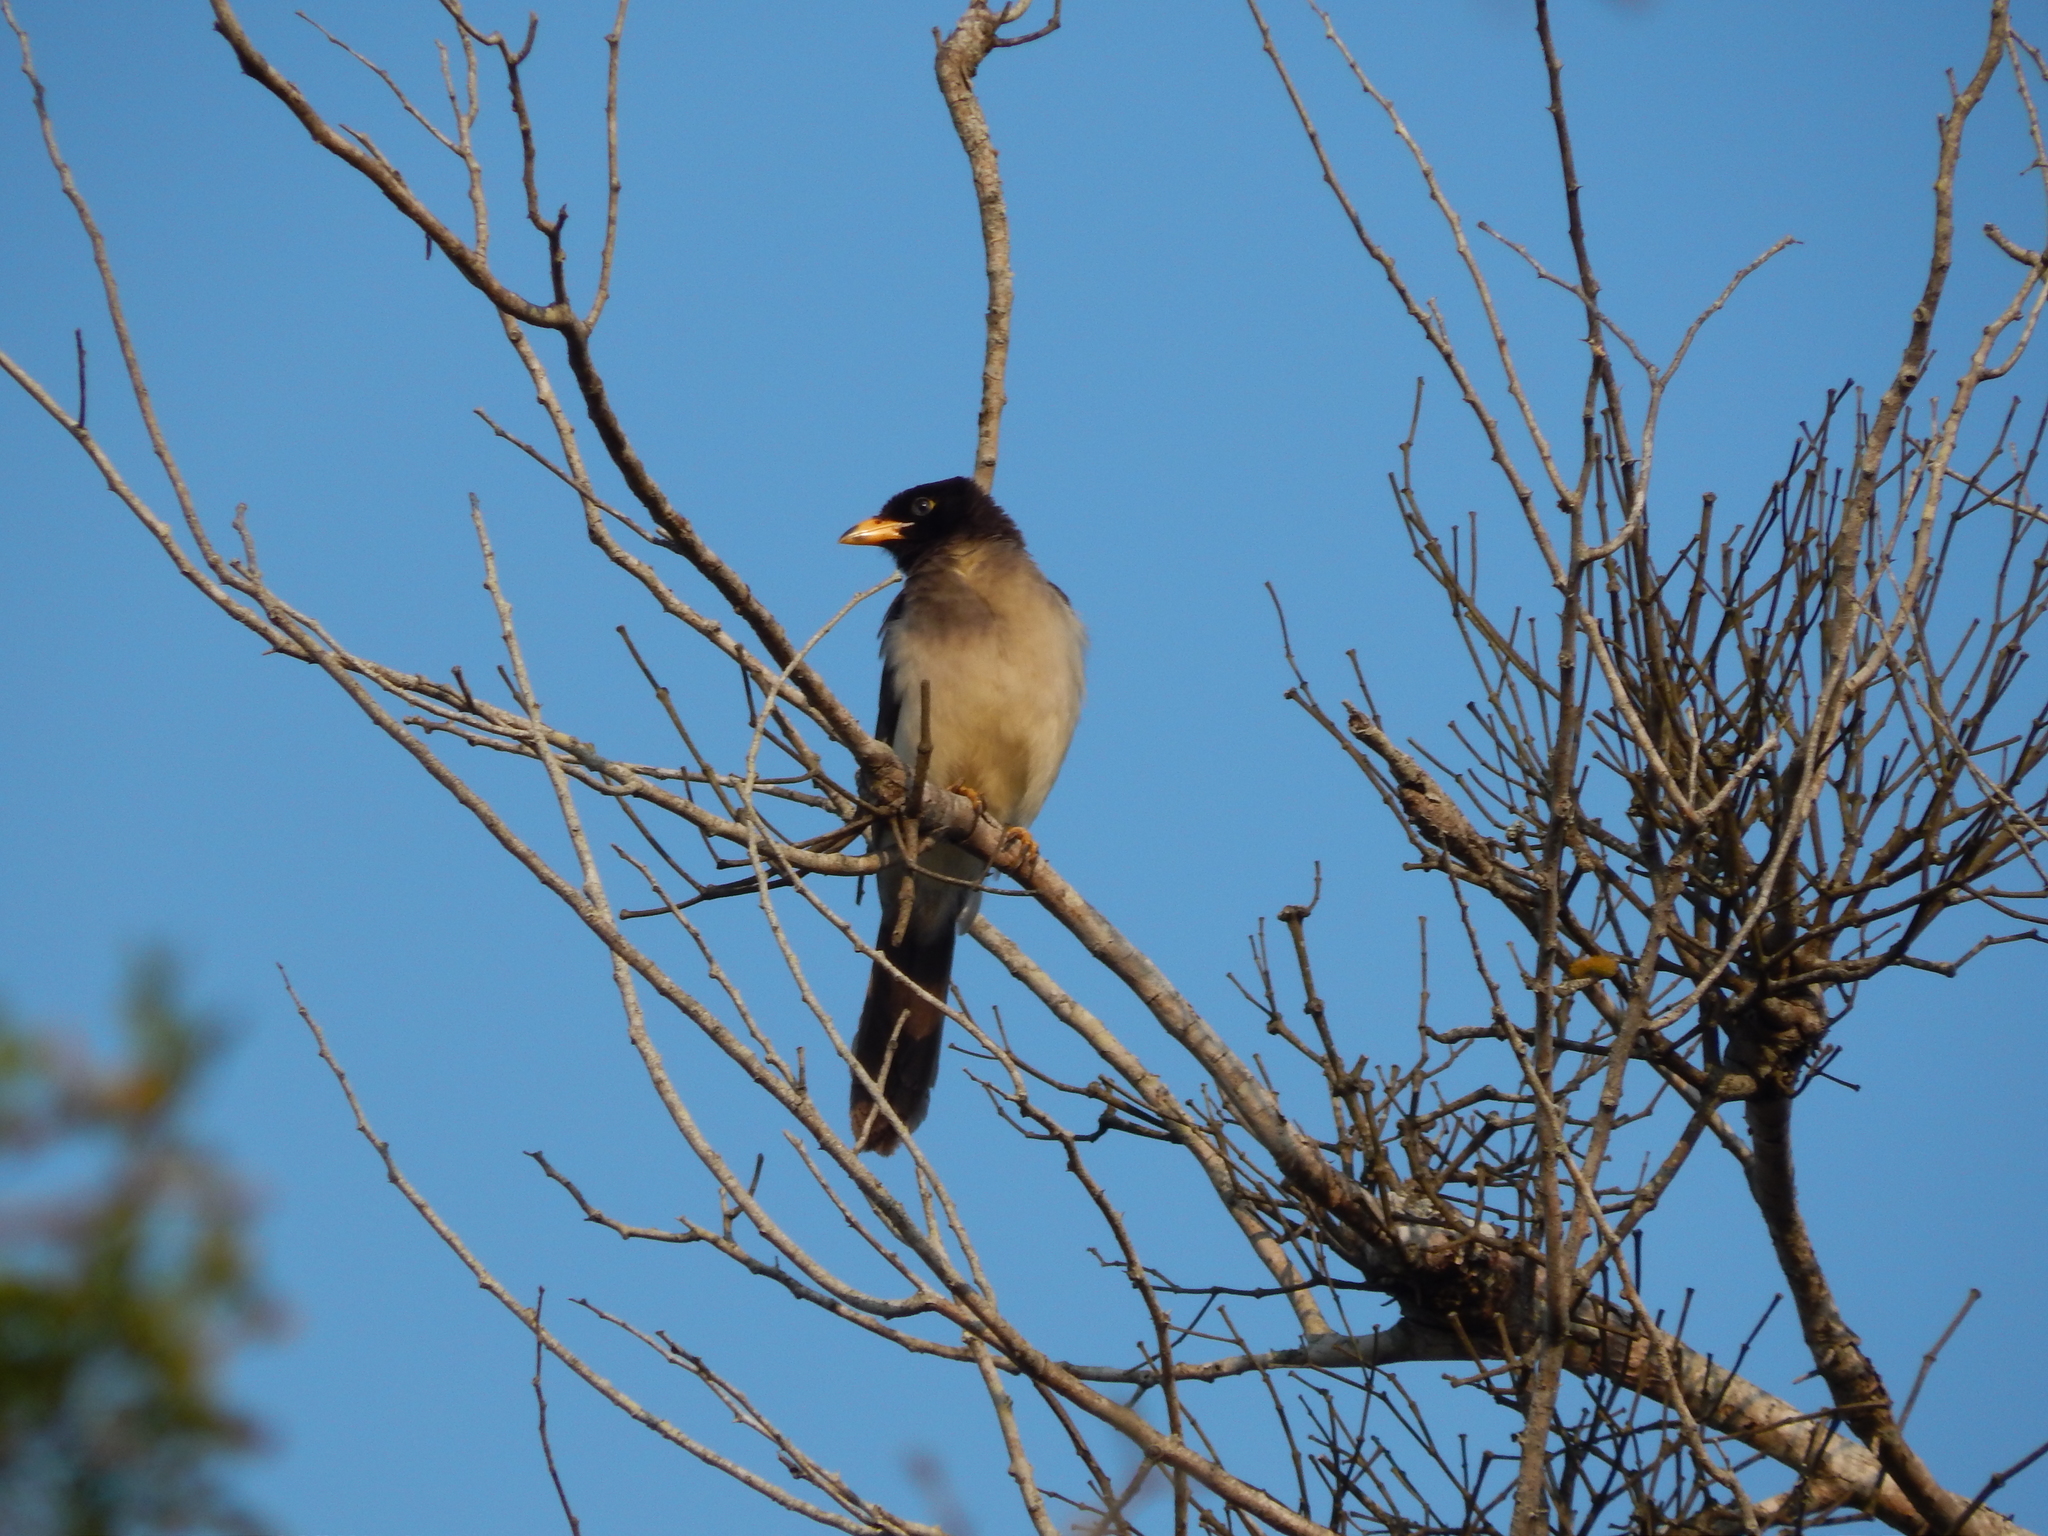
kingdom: Animalia
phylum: Chordata
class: Aves
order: Passeriformes
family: Corvidae
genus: Psilorhinus
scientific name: Psilorhinus morio
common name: Brown jay
